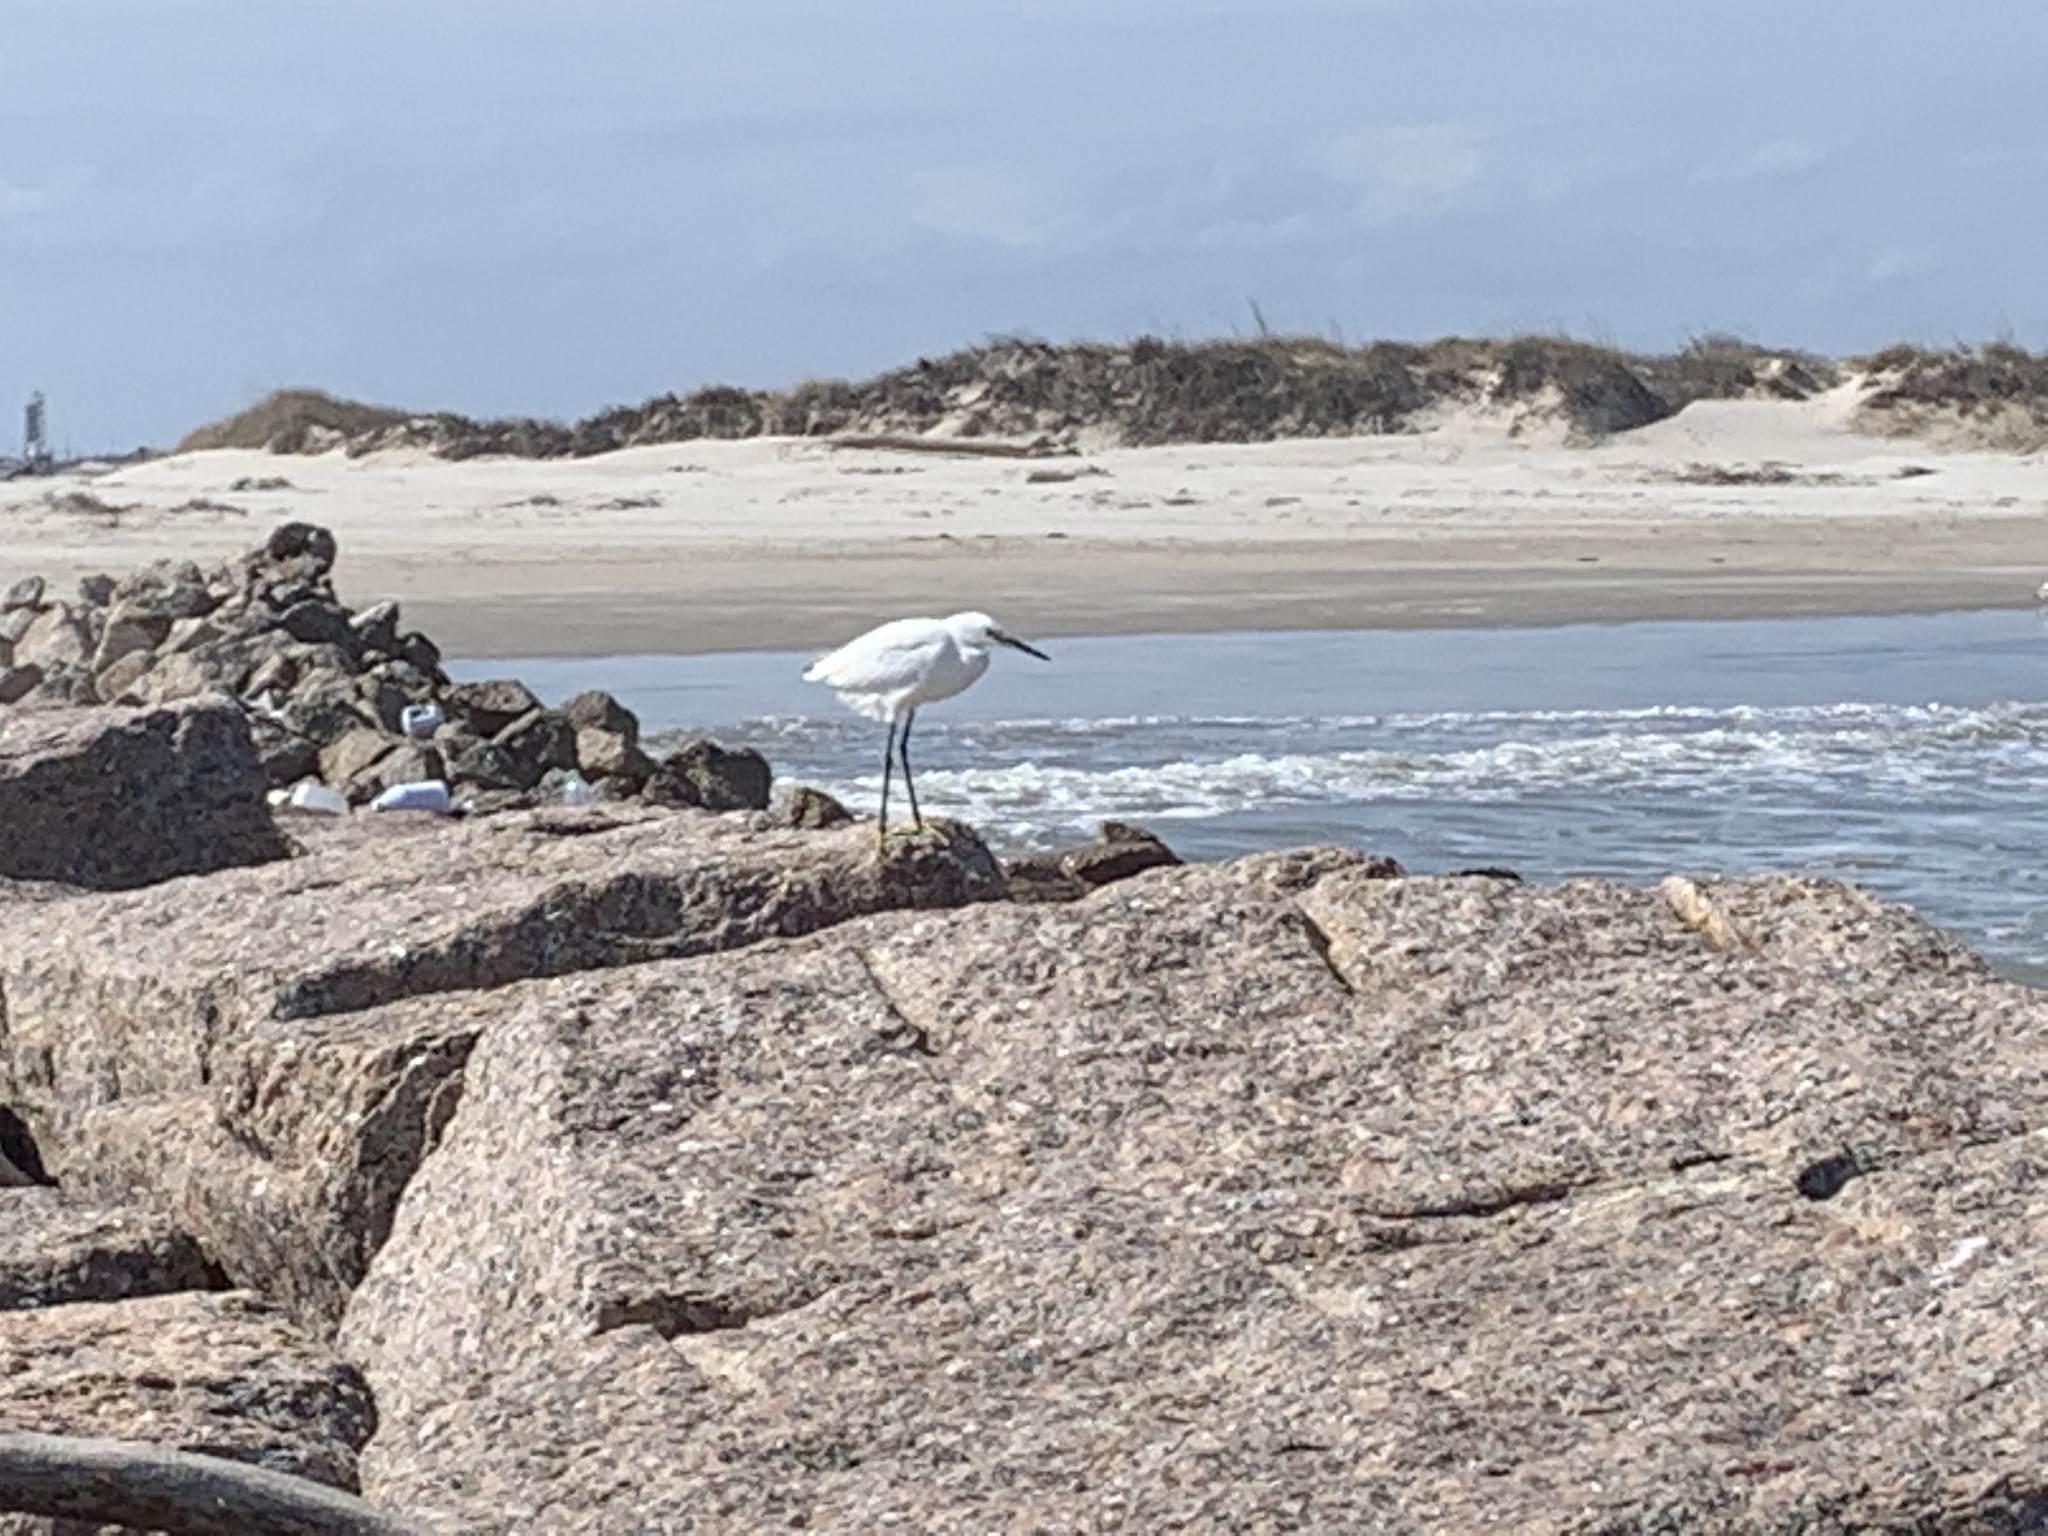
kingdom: Animalia
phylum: Chordata
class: Aves
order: Pelecaniformes
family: Ardeidae
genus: Egretta
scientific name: Egretta thula
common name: Snowy egret
